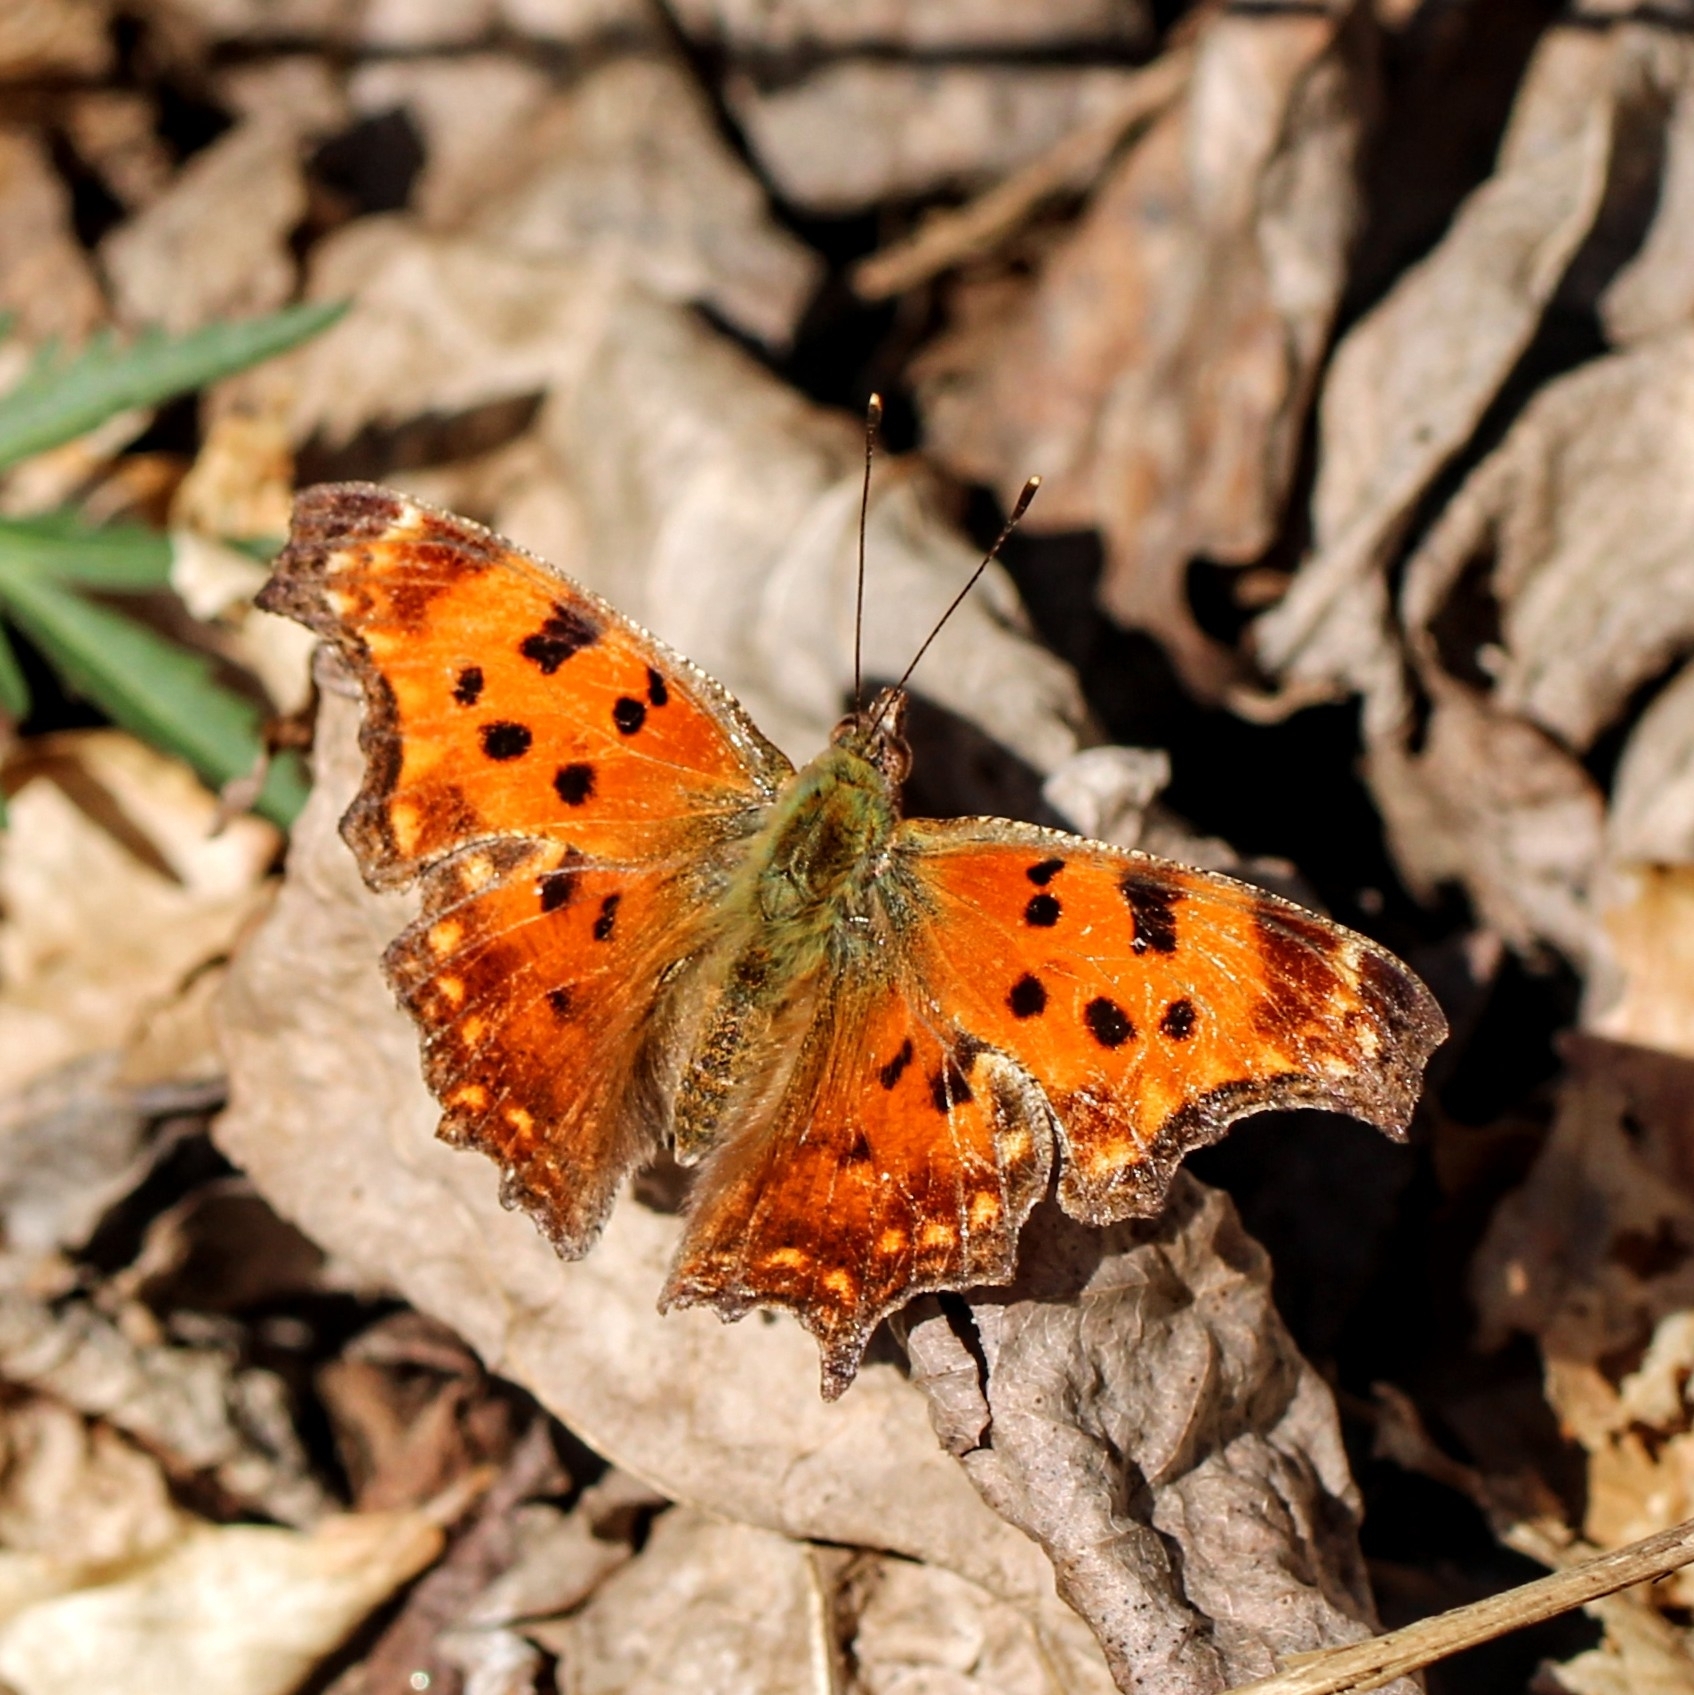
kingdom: Animalia
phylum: Arthropoda
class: Insecta
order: Lepidoptera
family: Nymphalidae
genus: Polygonia
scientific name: Polygonia comma
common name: Eastern comma
